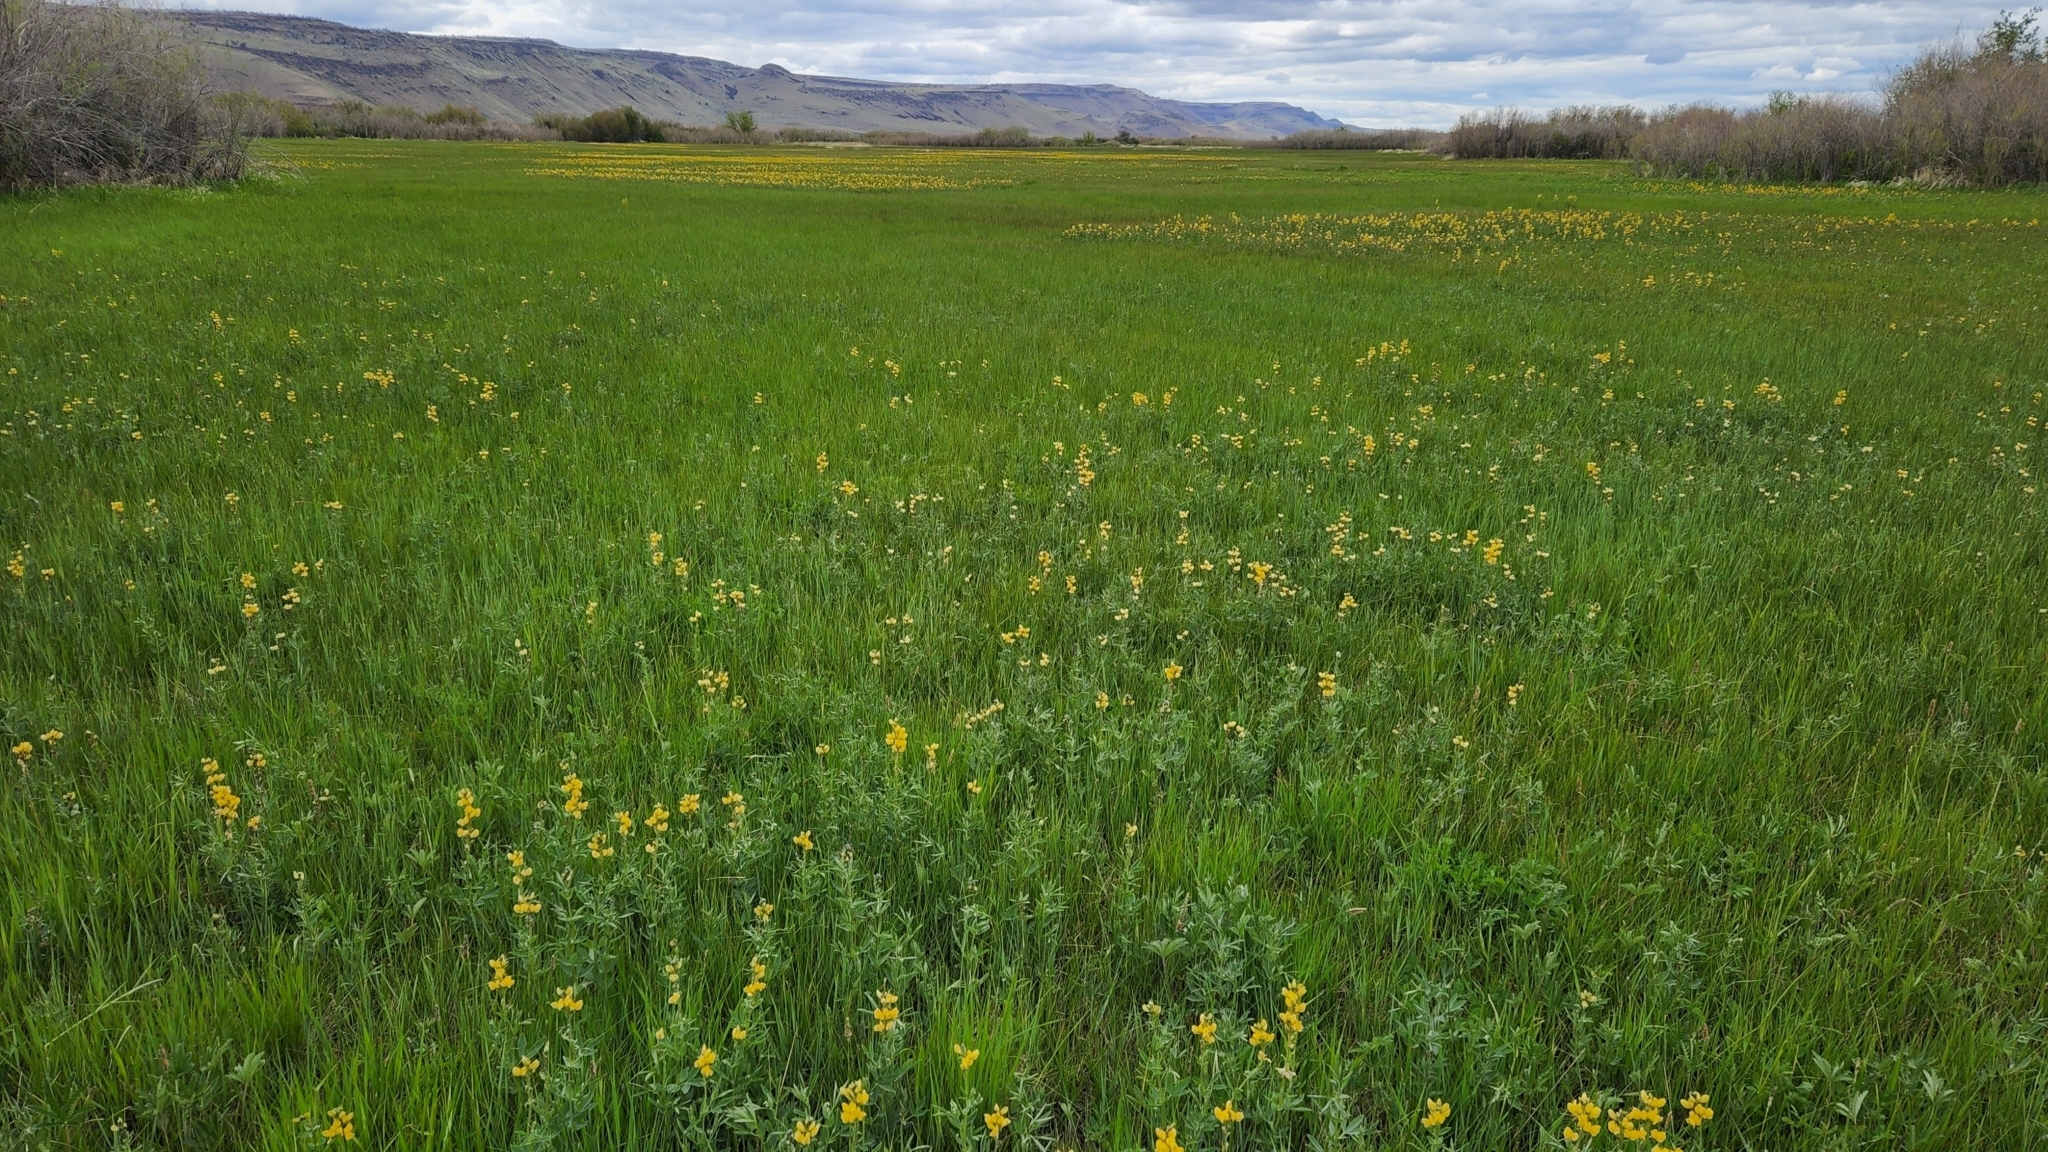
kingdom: Plantae
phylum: Tracheophyta
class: Magnoliopsida
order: Fabales
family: Fabaceae
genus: Thermopsis
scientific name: Thermopsis montana
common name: False lupin
